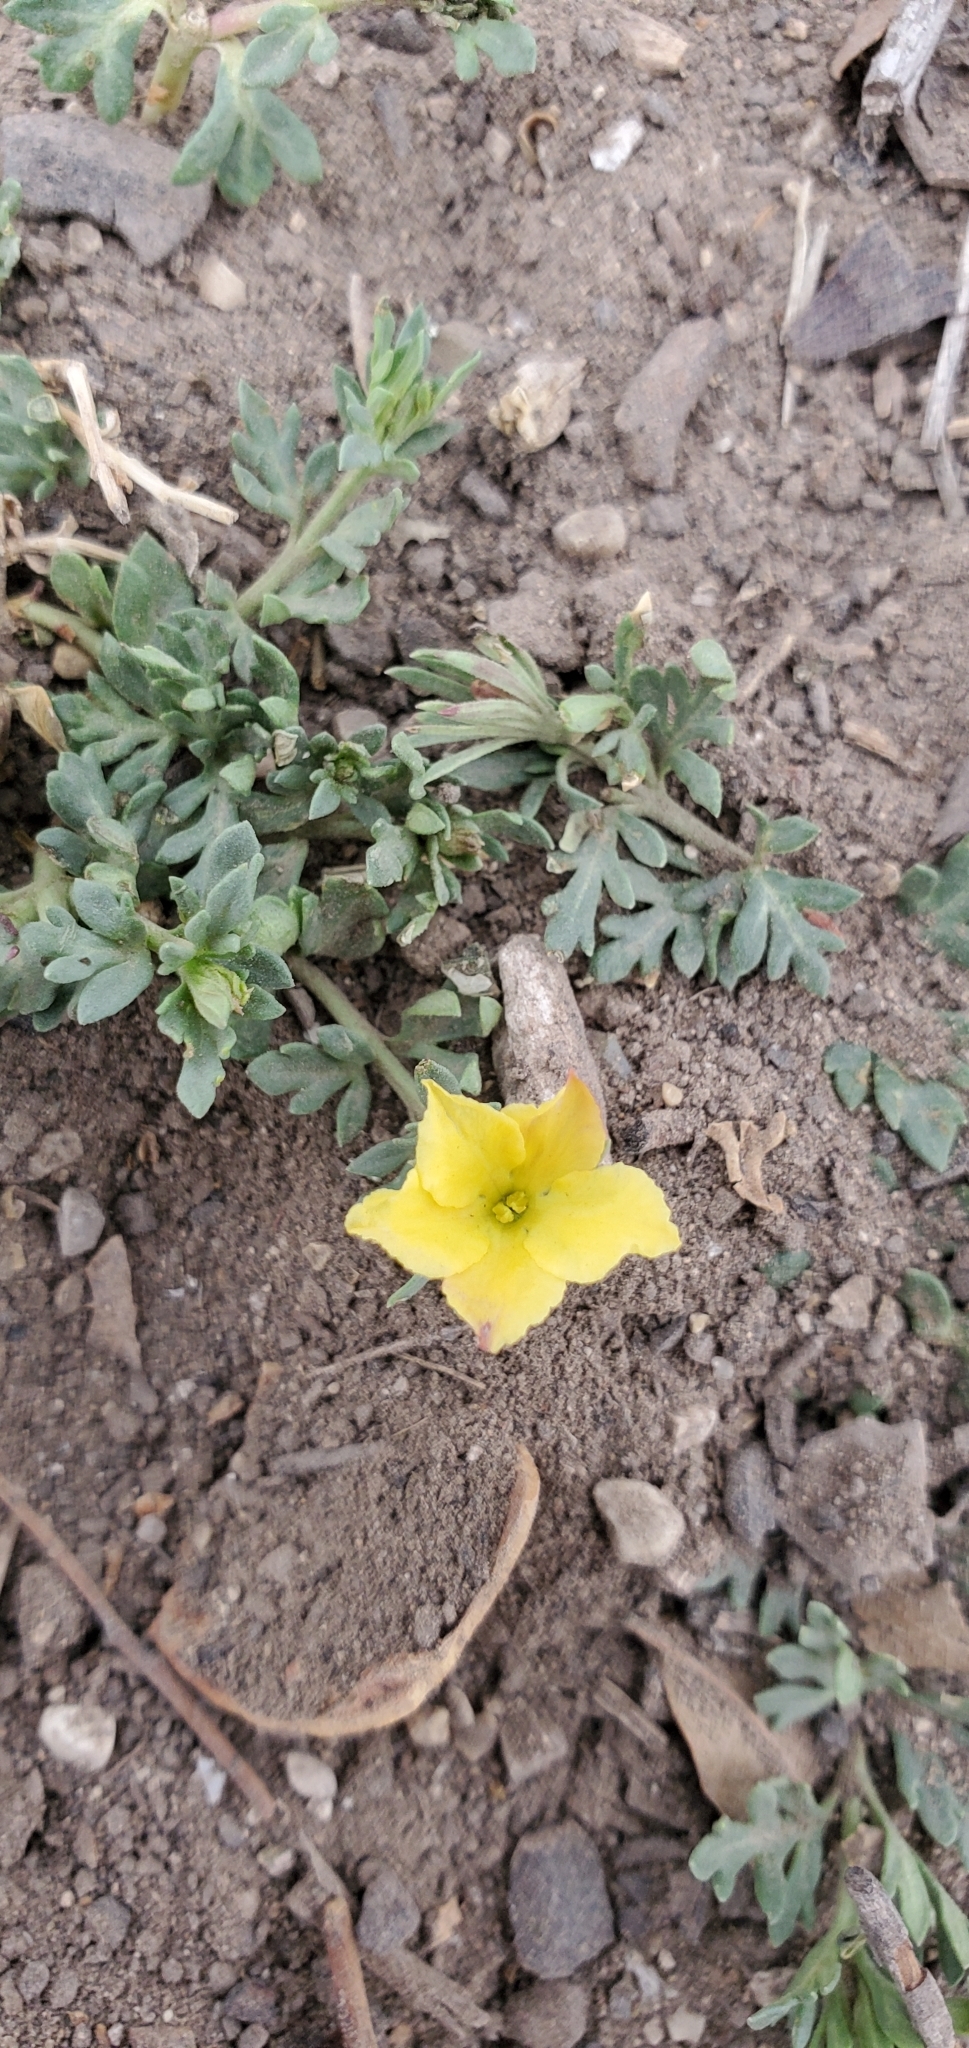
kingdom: Plantae
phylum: Tracheophyta
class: Magnoliopsida
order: Lamiales
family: Oleaceae
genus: Menodora
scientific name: Menodora heterophylla
